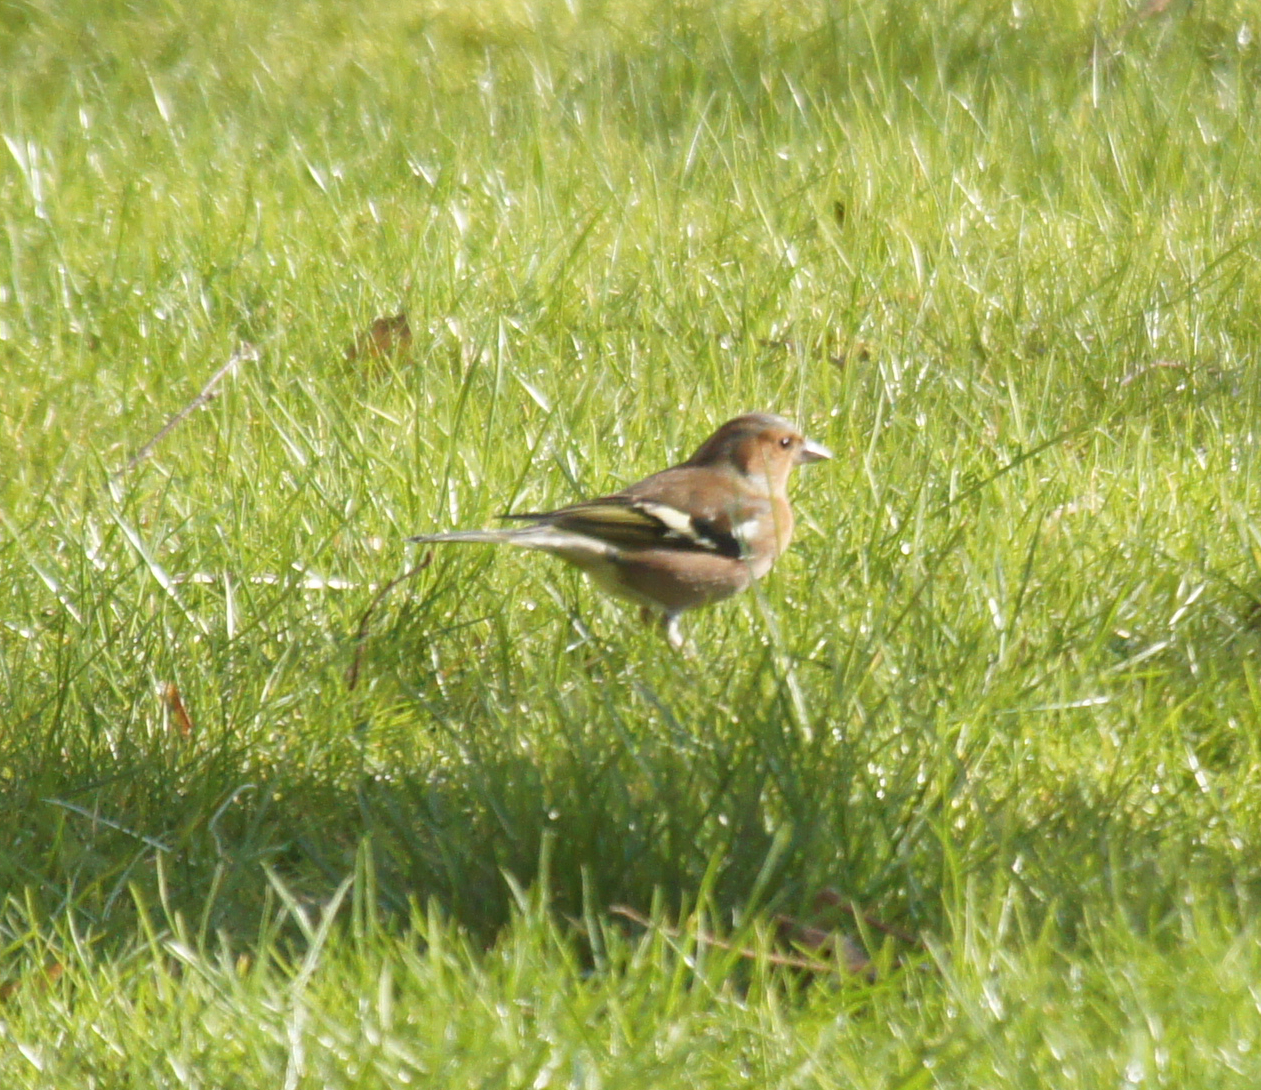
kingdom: Animalia
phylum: Chordata
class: Aves
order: Passeriformes
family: Fringillidae
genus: Fringilla
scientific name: Fringilla coelebs
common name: Common chaffinch
